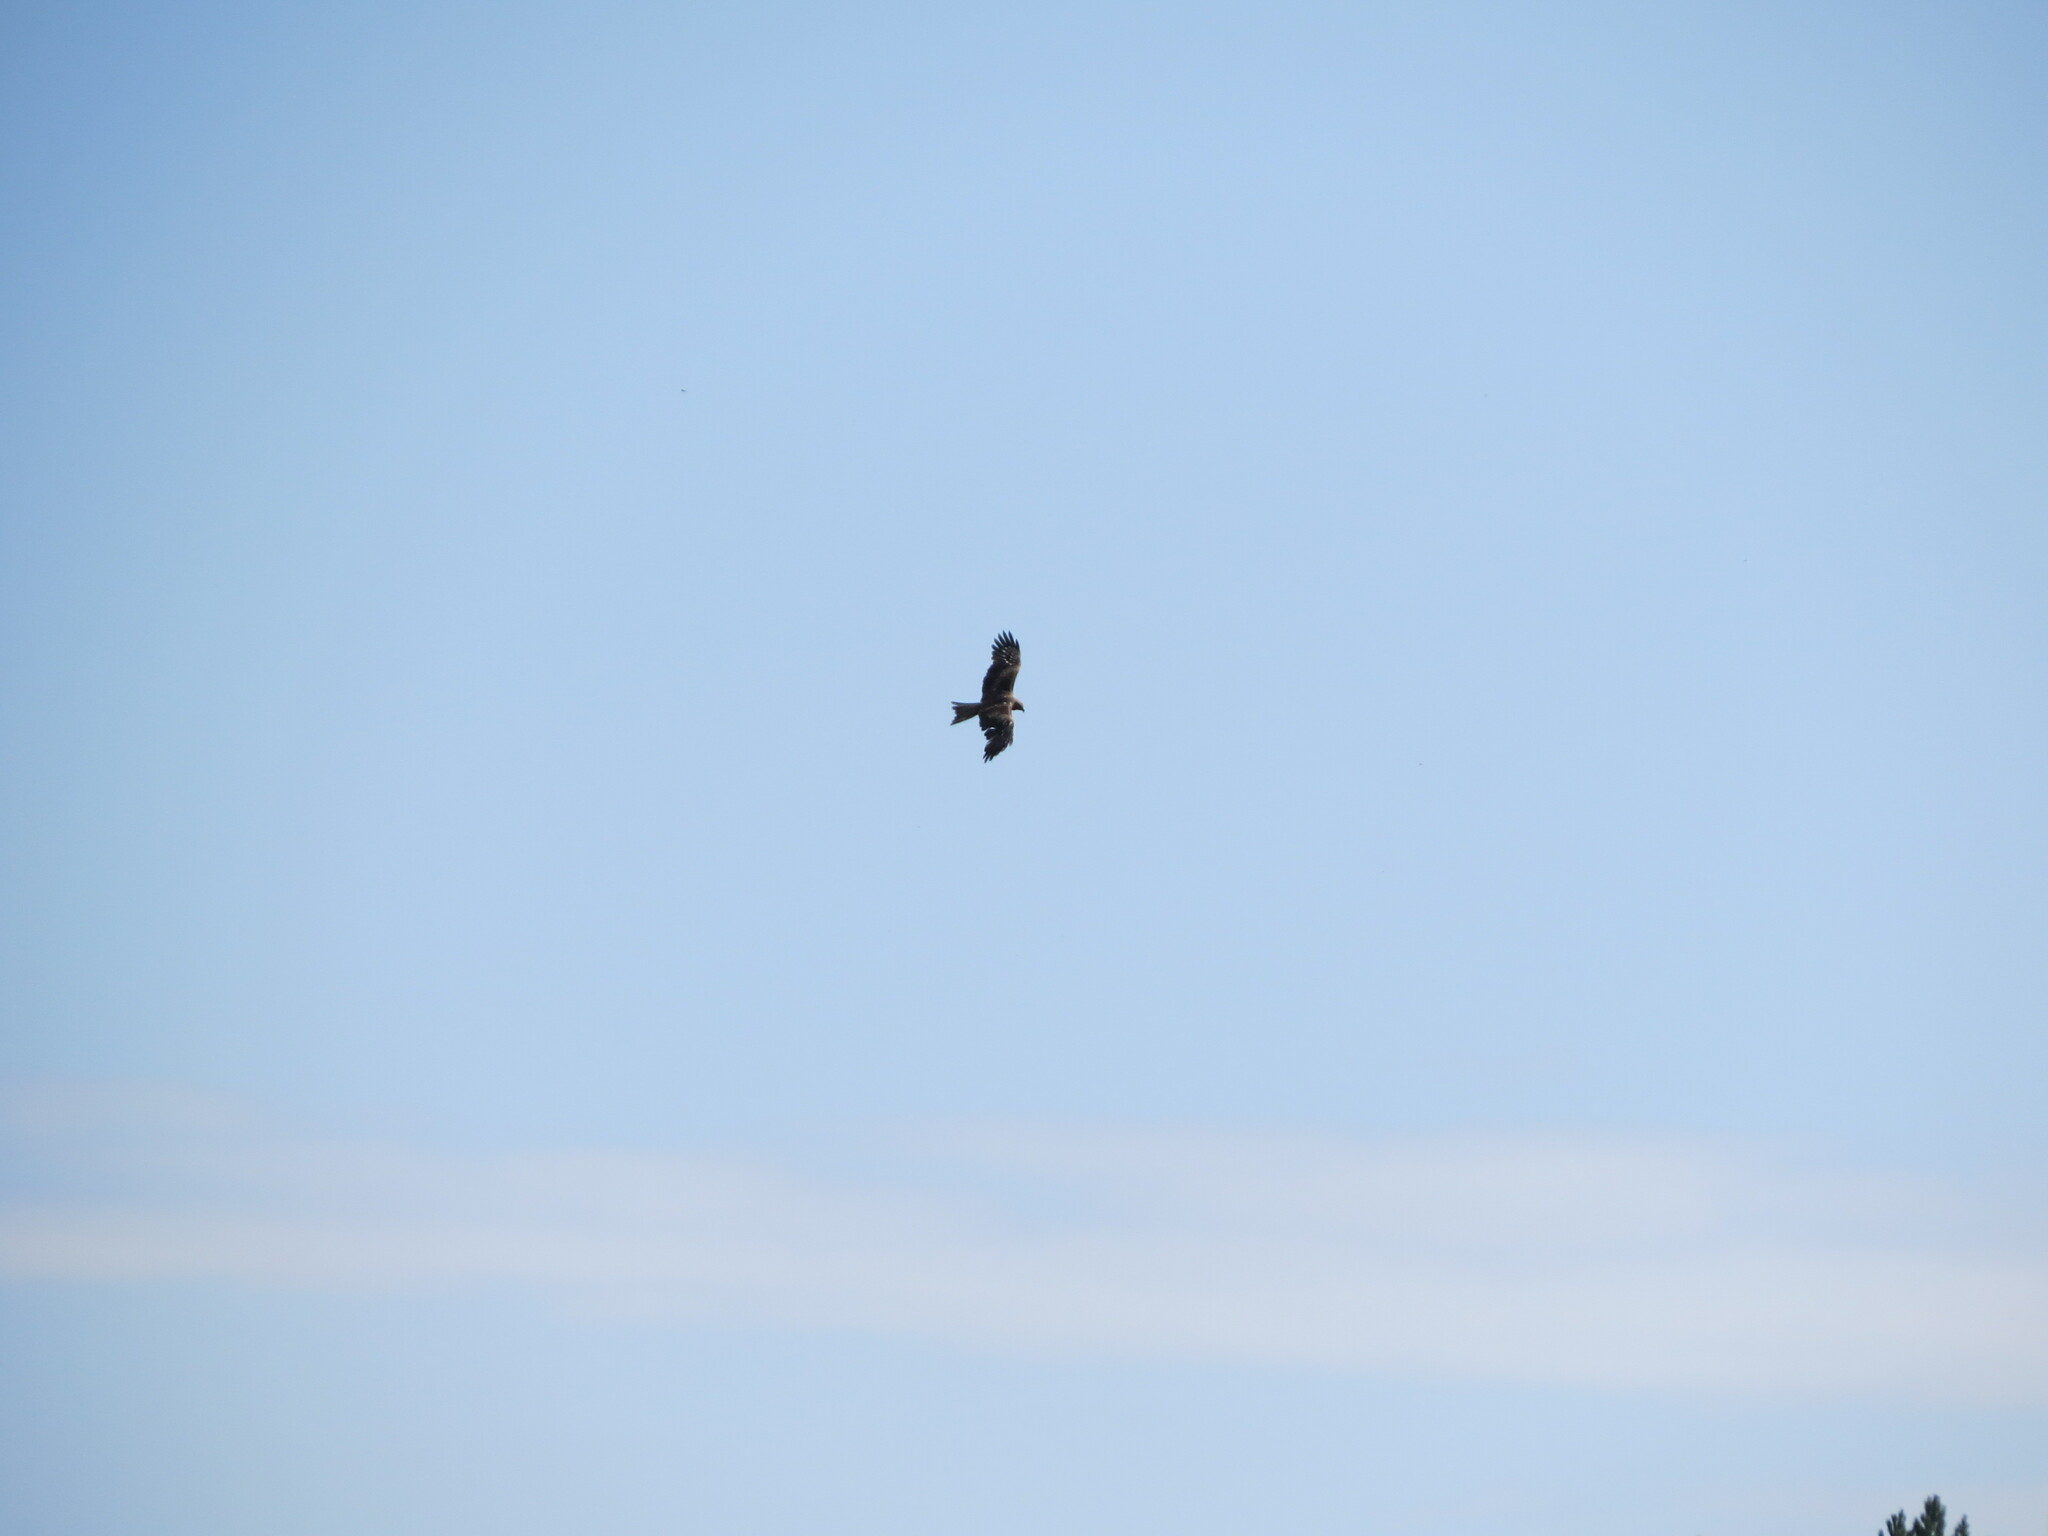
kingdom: Animalia
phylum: Chordata
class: Aves
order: Accipitriformes
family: Accipitridae
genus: Milvus
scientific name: Milvus migrans
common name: Black kite
